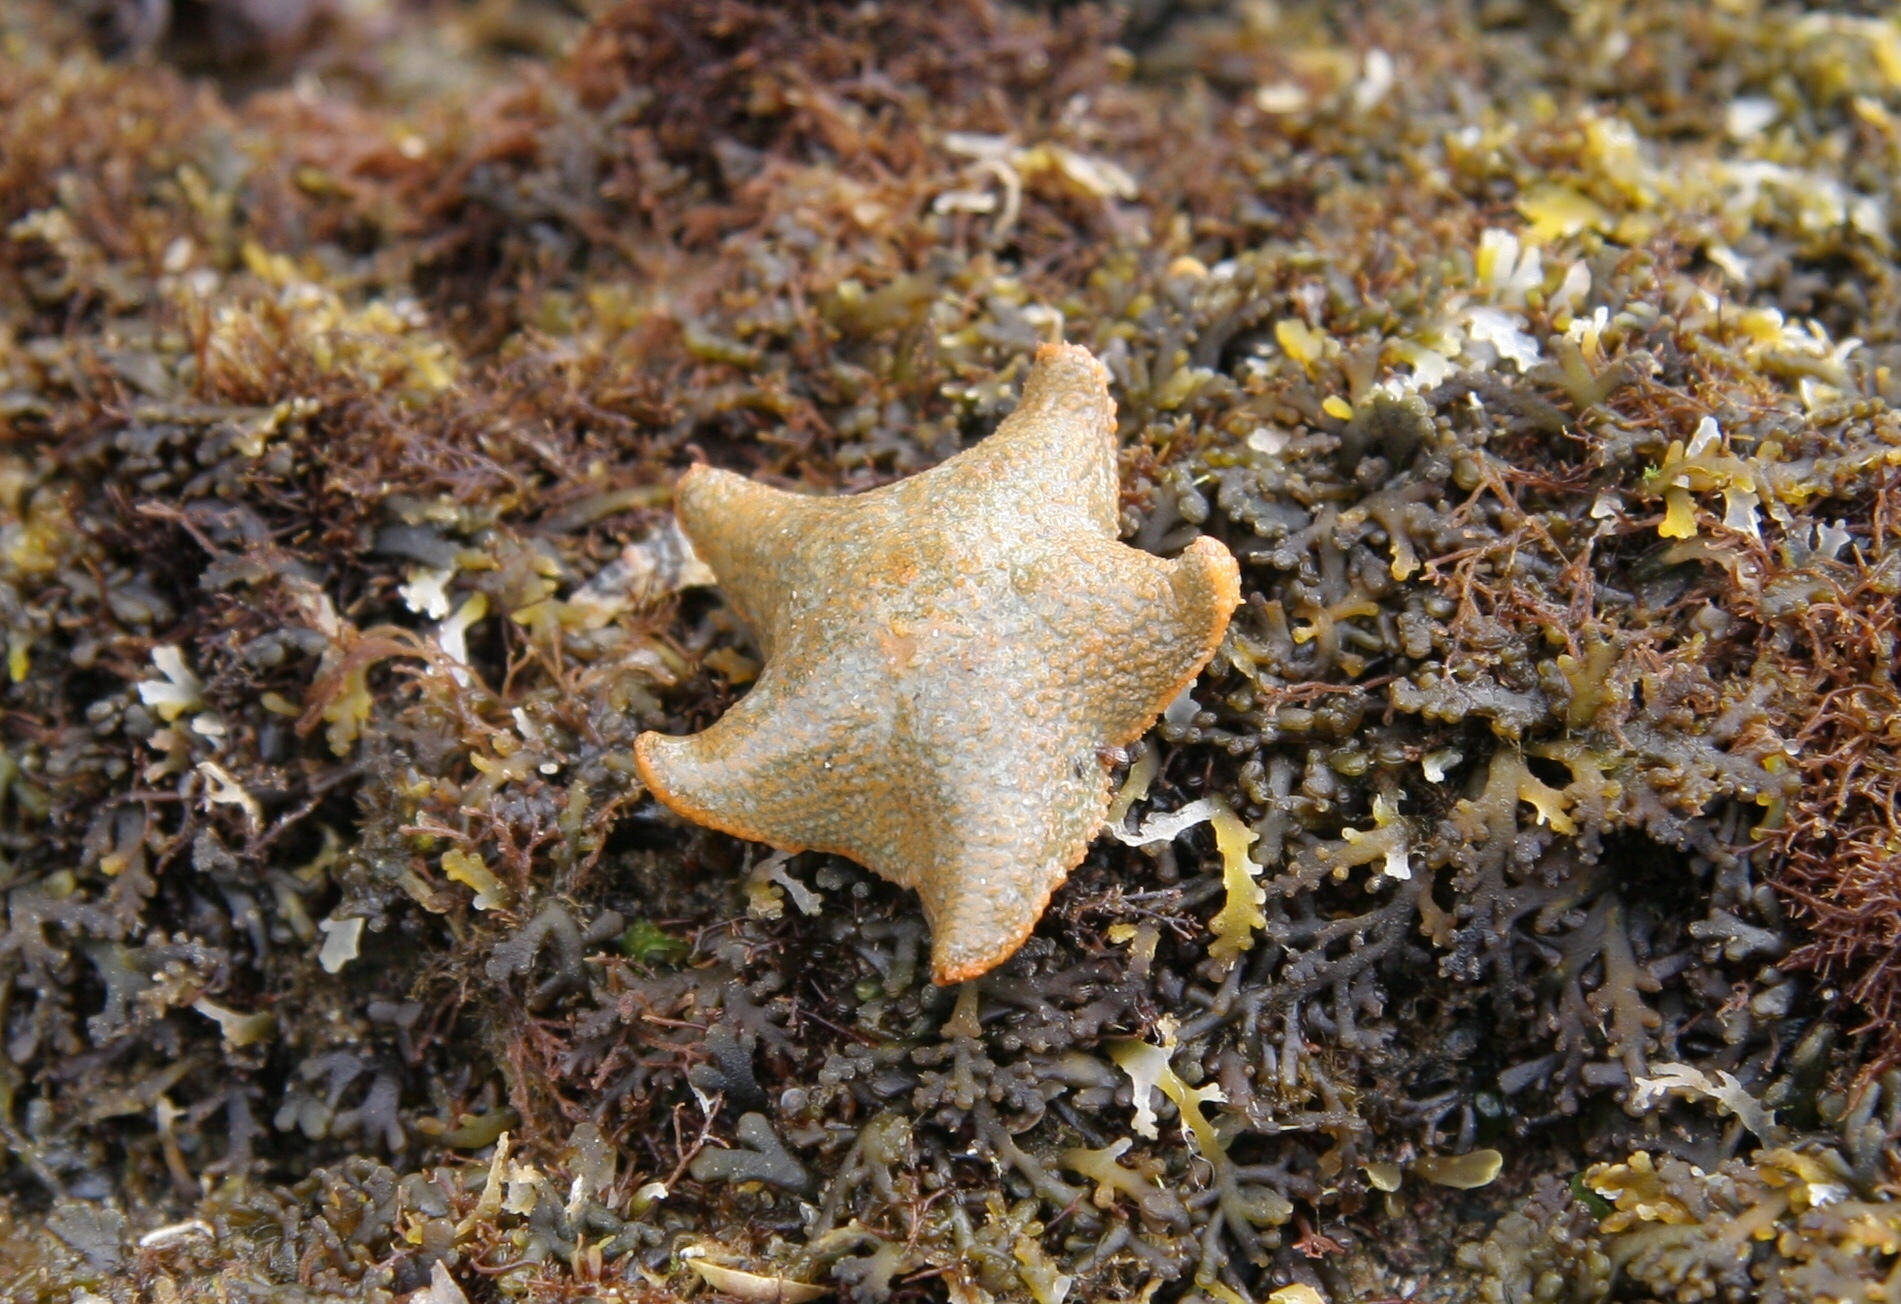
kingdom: Animalia
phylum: Echinodermata
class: Asteroidea
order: Valvatida
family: Asterinidae
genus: Asterina
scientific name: Asterina gibbosa
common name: Cushion star
